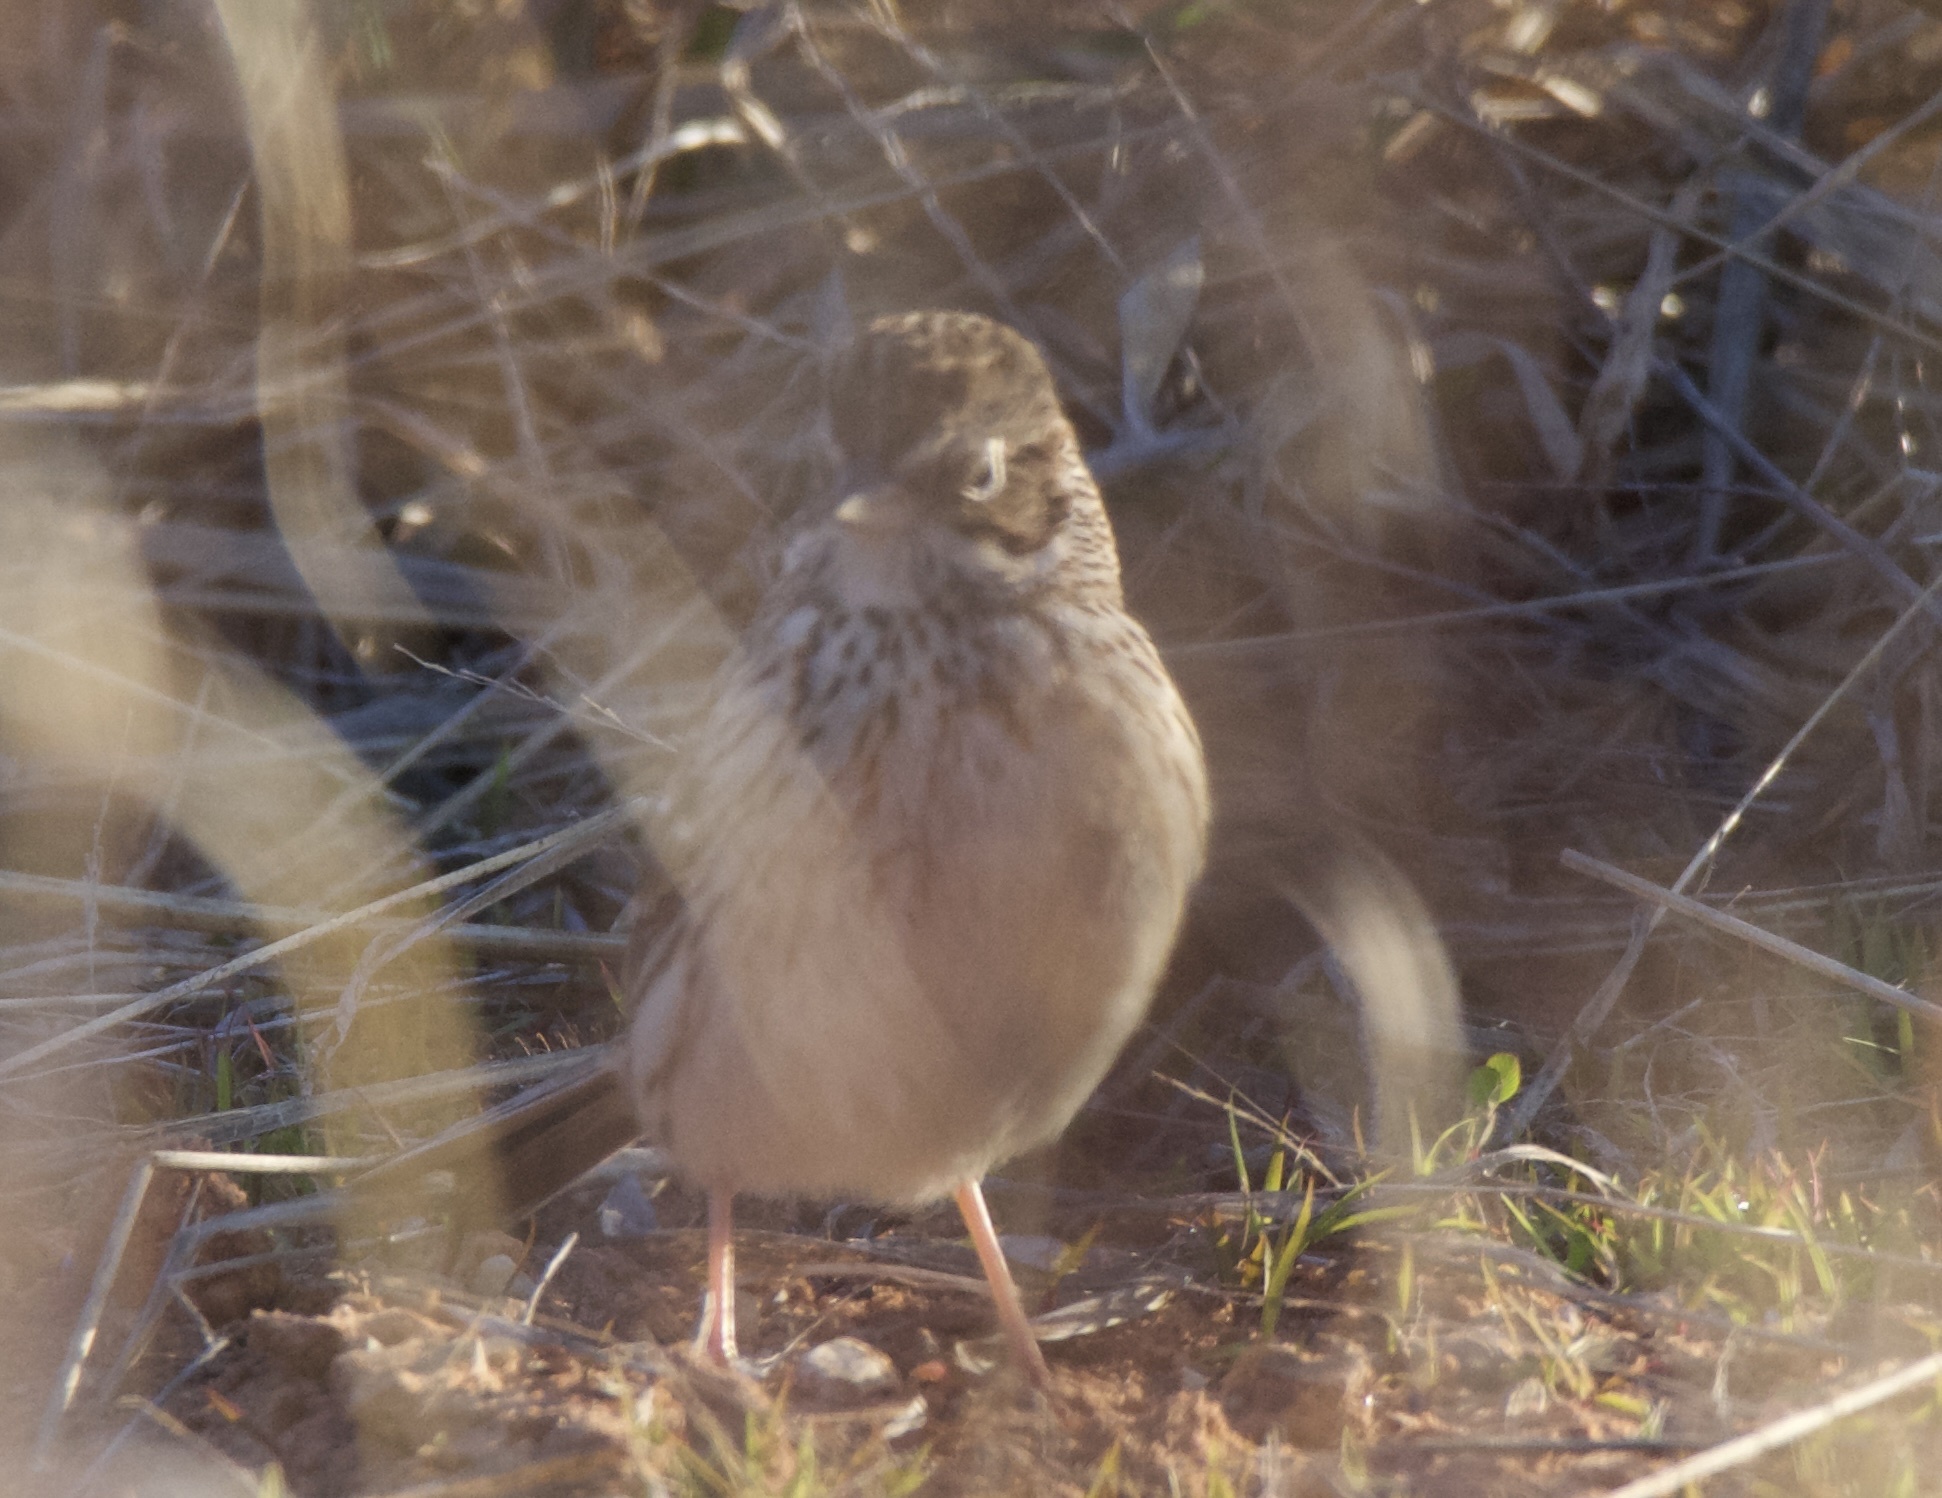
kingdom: Animalia
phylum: Chordata
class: Aves
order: Passeriformes
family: Passerellidae
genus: Pooecetes
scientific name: Pooecetes gramineus
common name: Vesper sparrow
